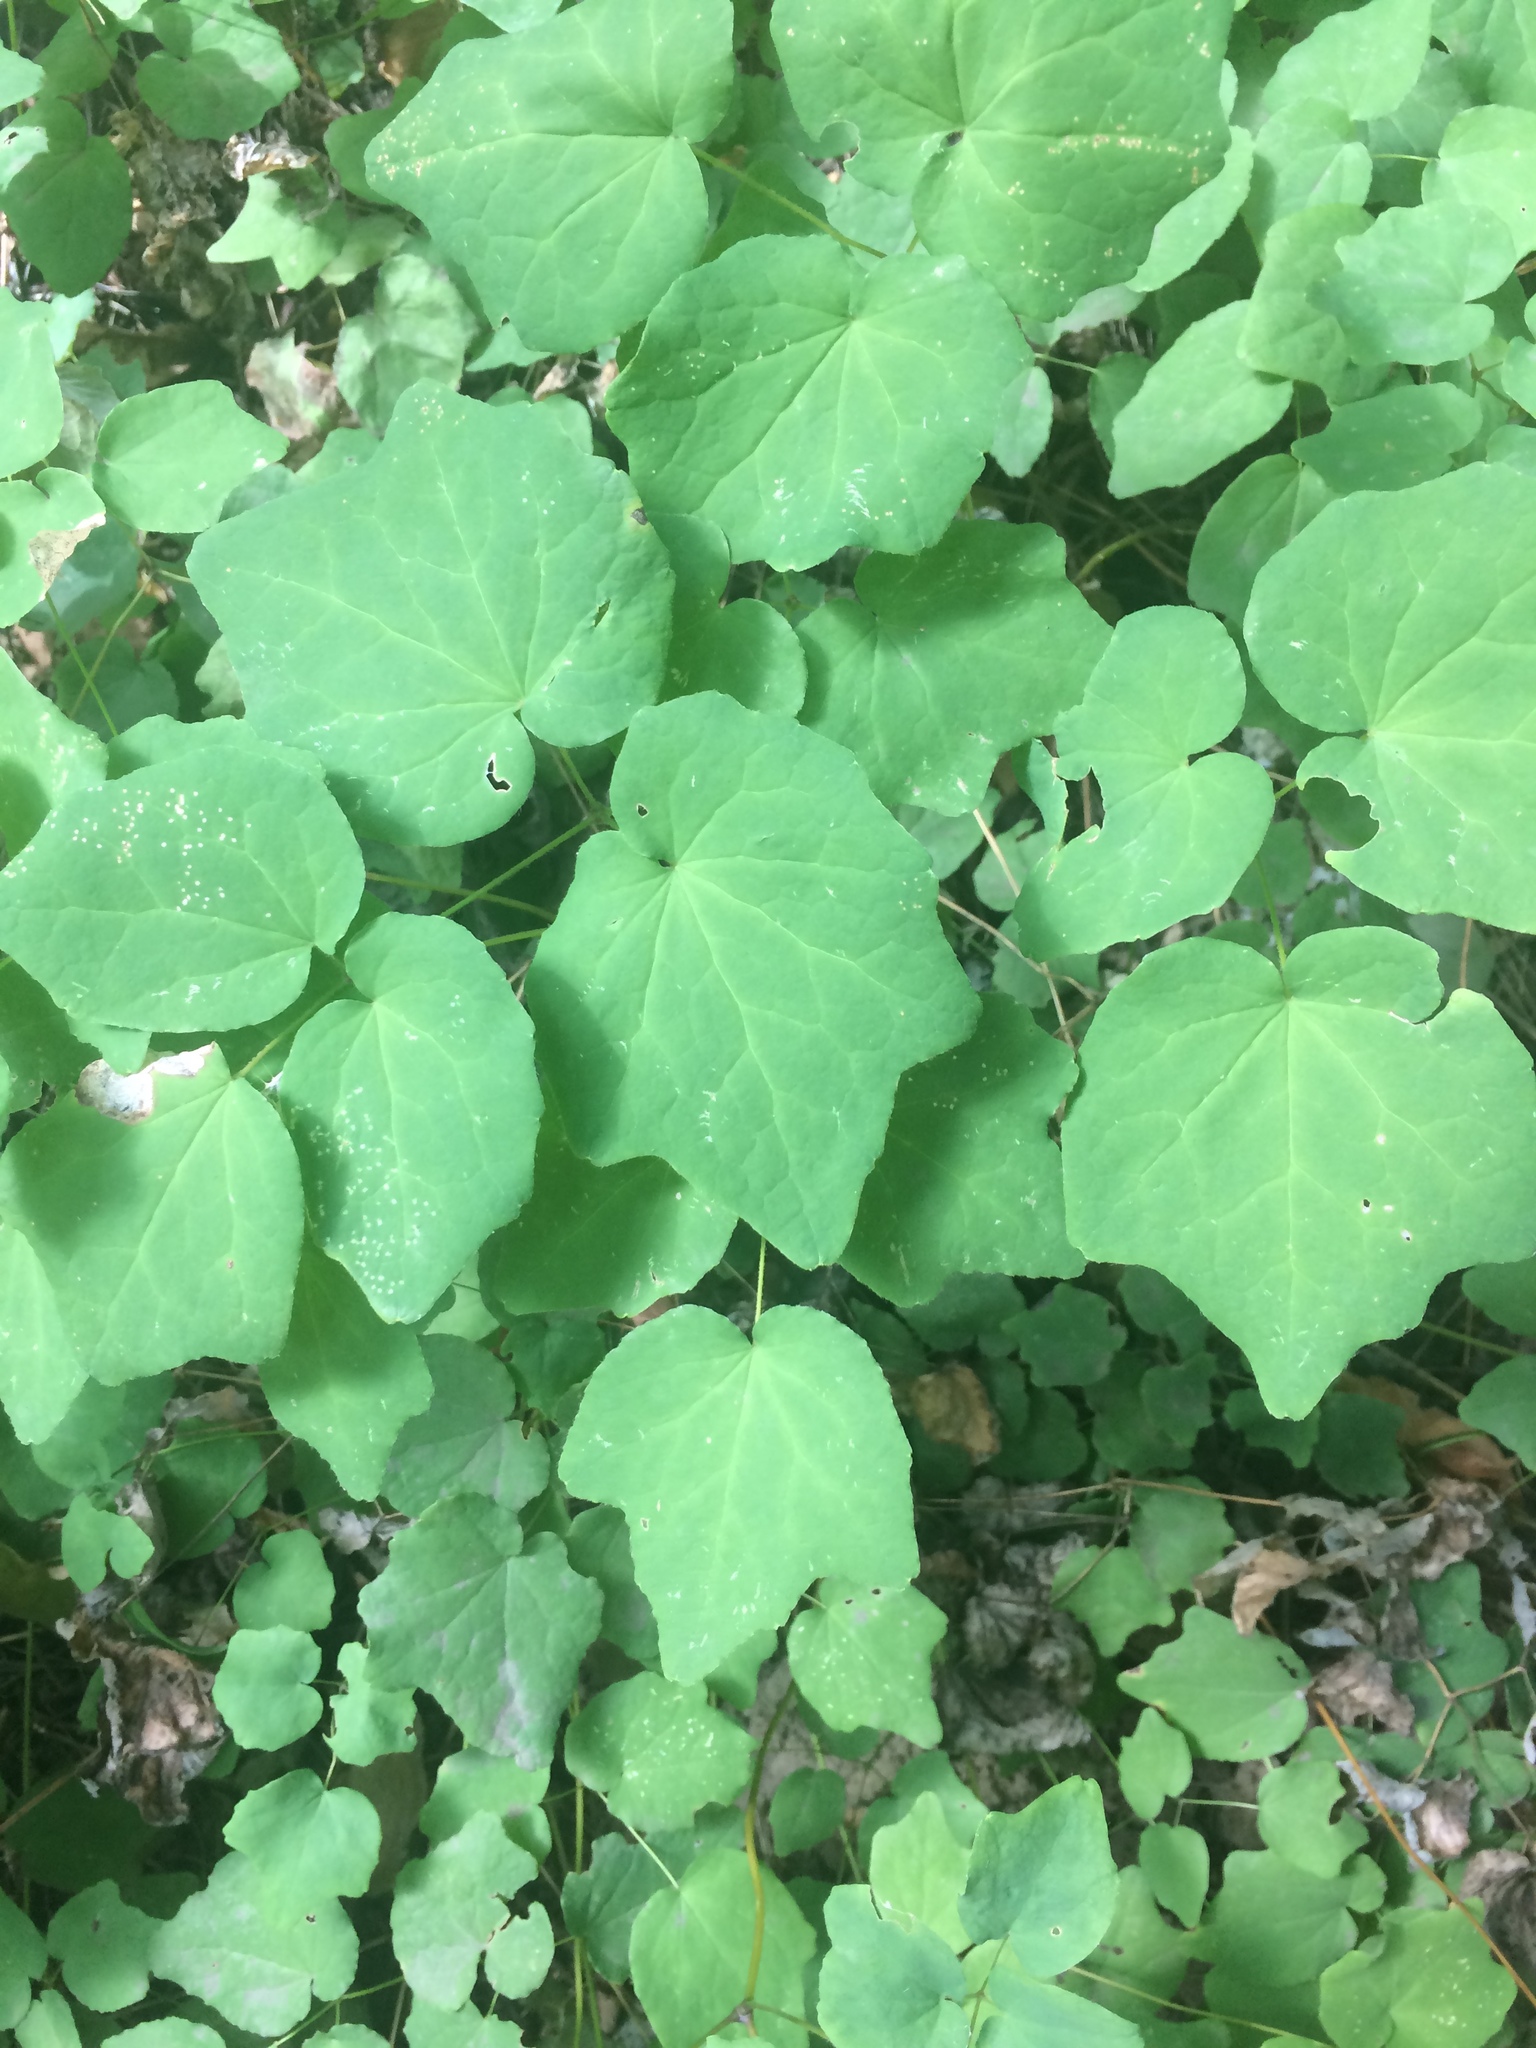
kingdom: Plantae
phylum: Tracheophyta
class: Magnoliopsida
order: Ranunculales
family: Berberidaceae
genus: Vancouveria
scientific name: Vancouveria hexandra
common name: Northern inside-out-flower
